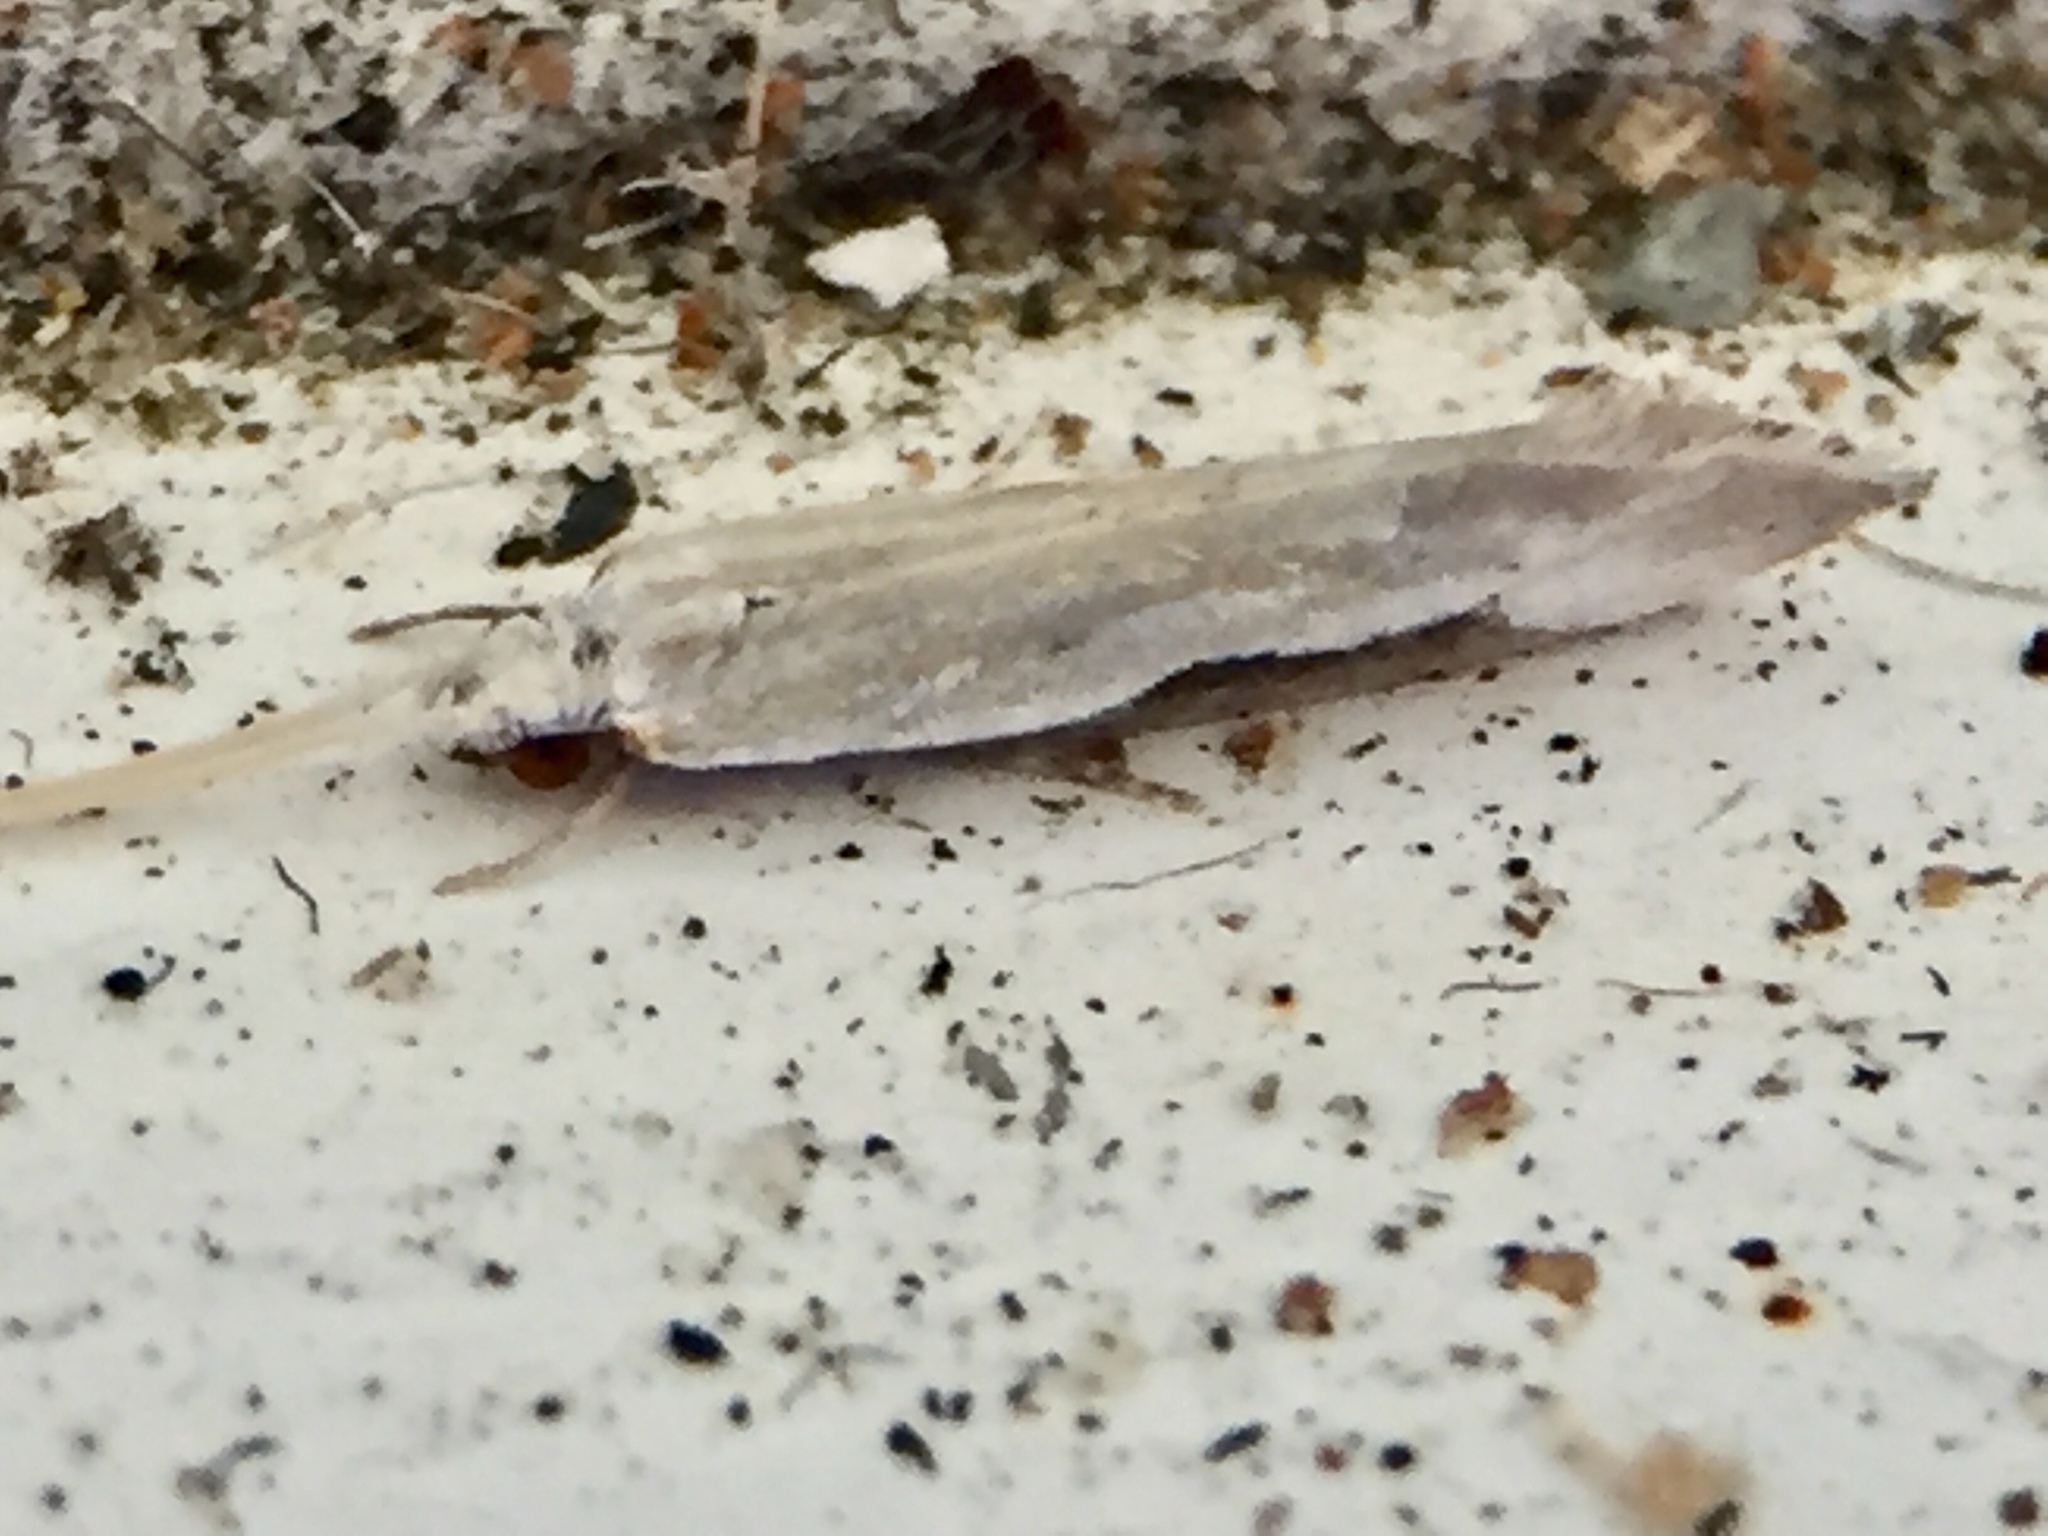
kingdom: Animalia
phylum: Arthropoda
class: Insecta
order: Lepidoptera
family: Tineidae
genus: Sagephora
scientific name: Sagephora phortegella
